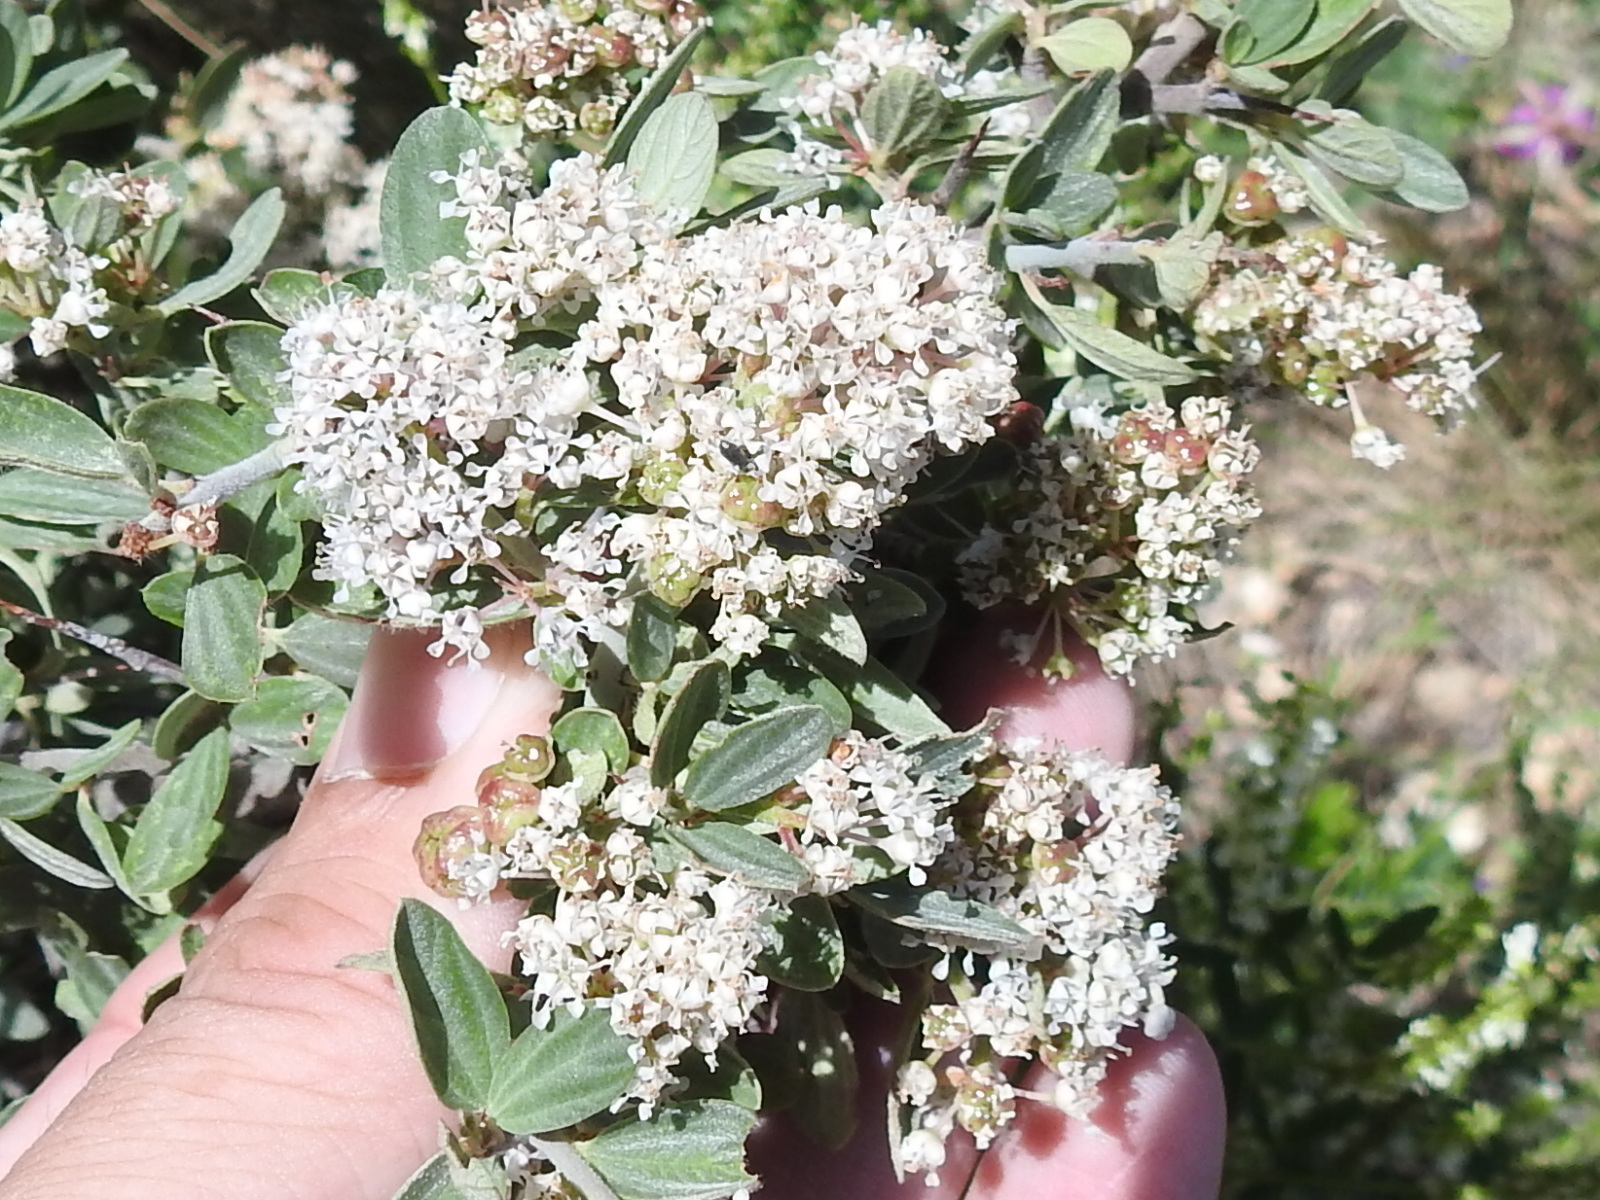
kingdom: Plantae
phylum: Tracheophyta
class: Magnoliopsida
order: Rosales
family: Rhamnaceae
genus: Ceanothus
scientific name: Ceanothus fendleri
